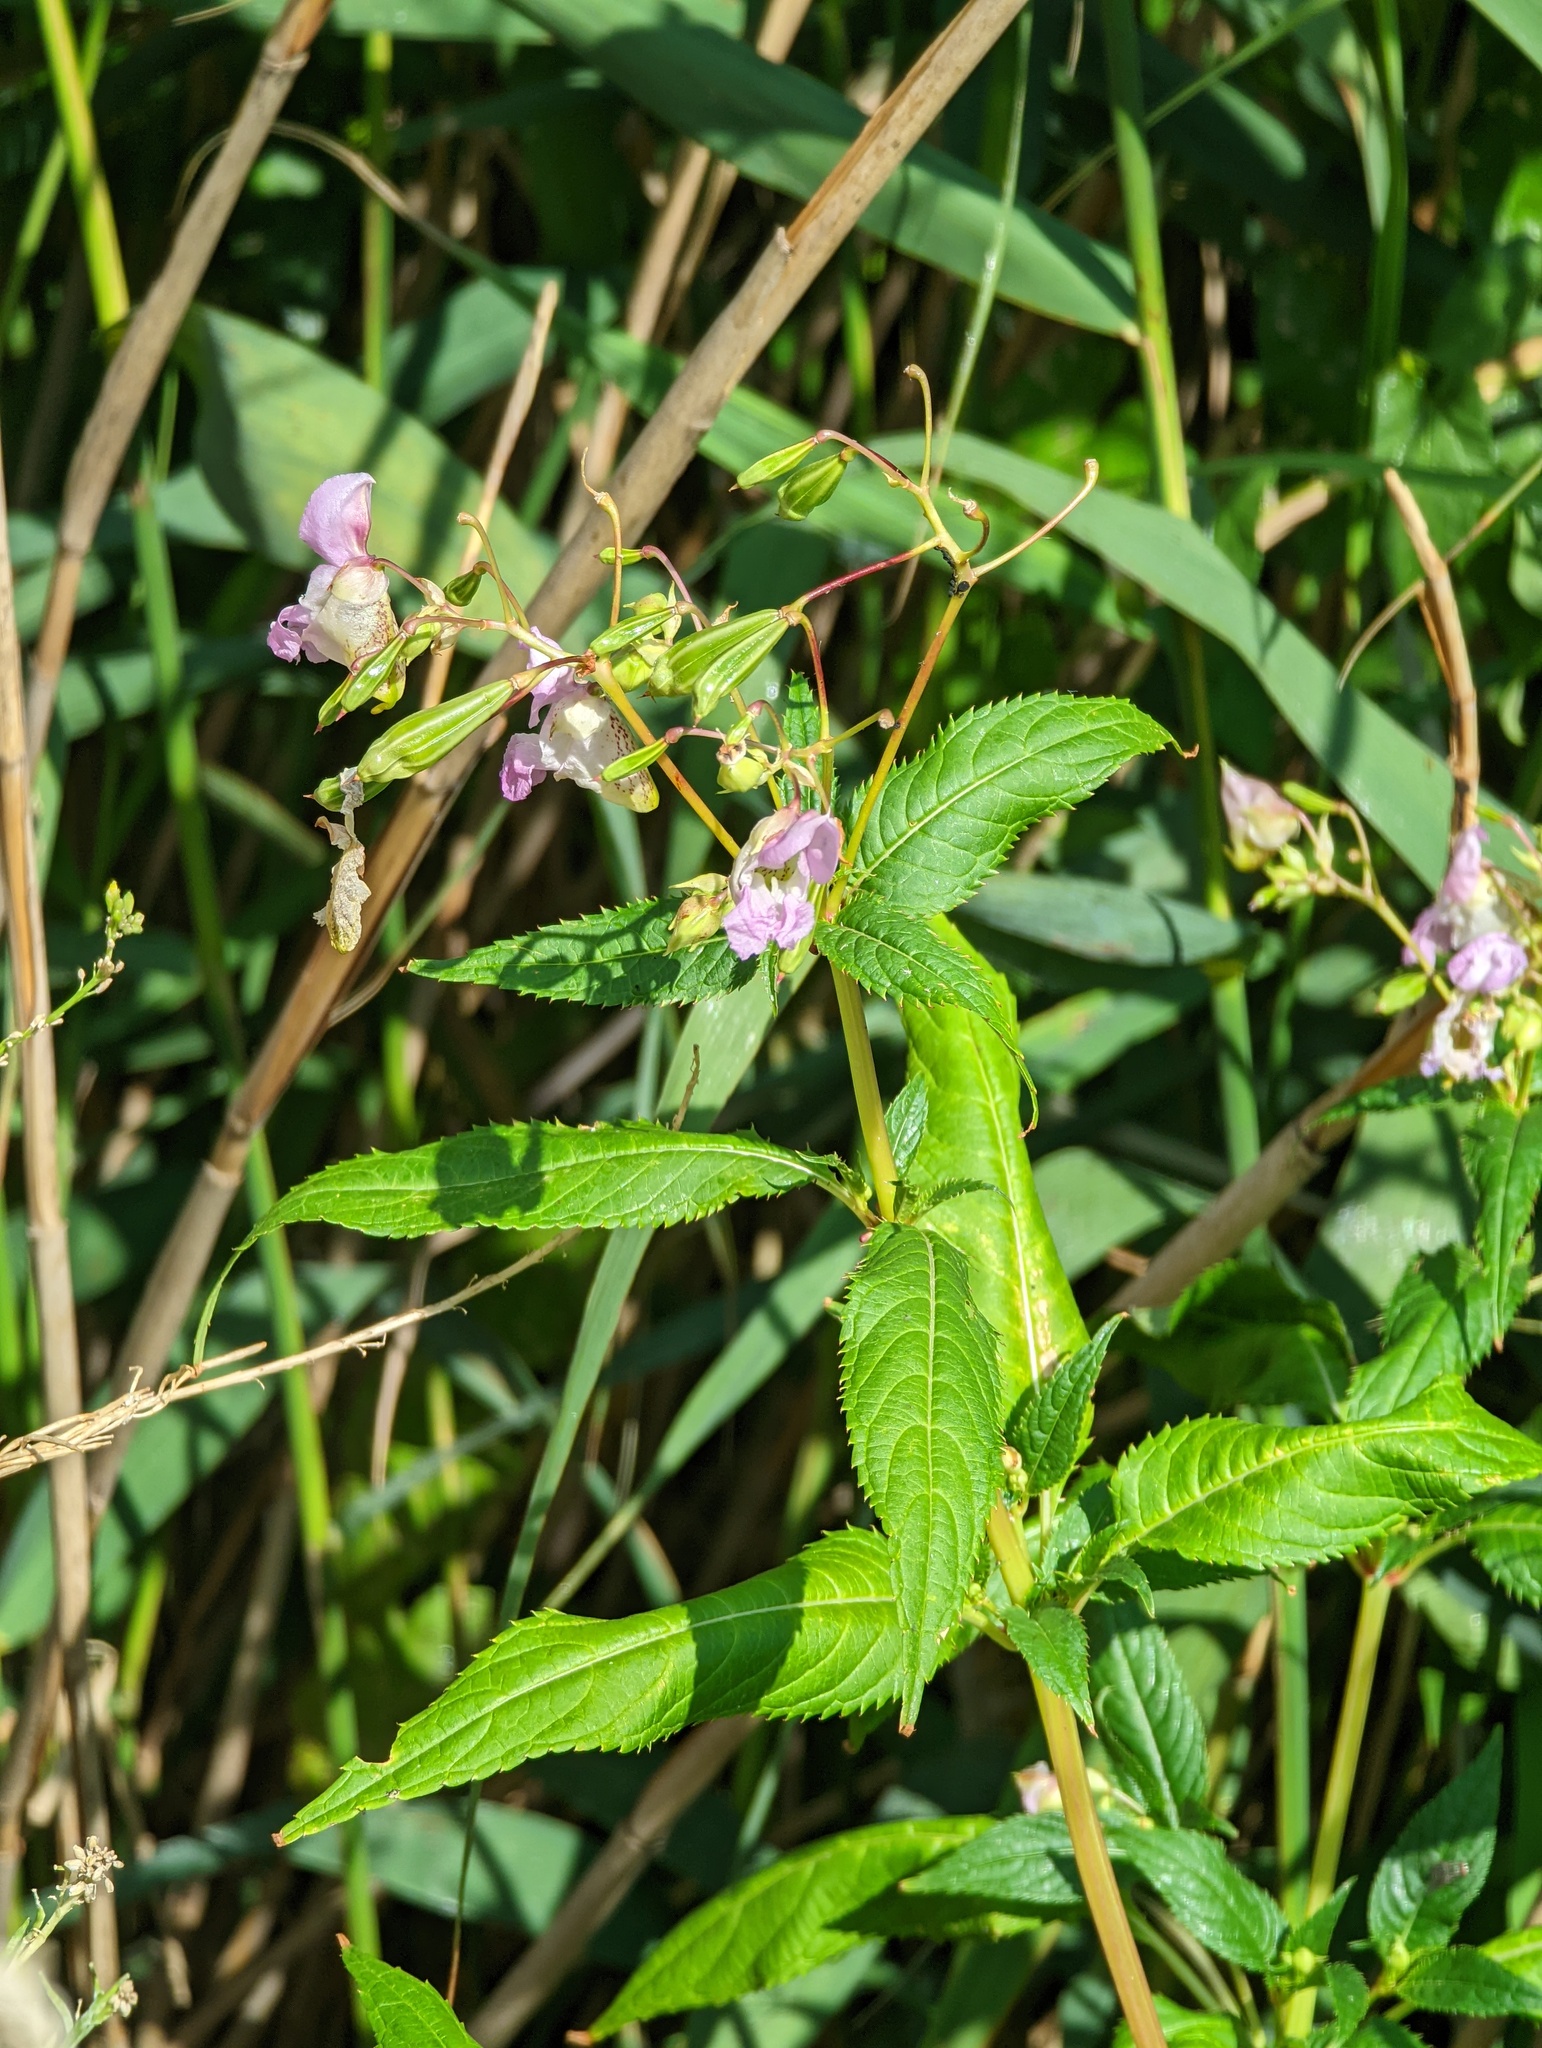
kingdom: Plantae
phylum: Tracheophyta
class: Magnoliopsida
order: Ericales
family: Balsaminaceae
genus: Impatiens
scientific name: Impatiens glandulifera
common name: Himalayan balsam
